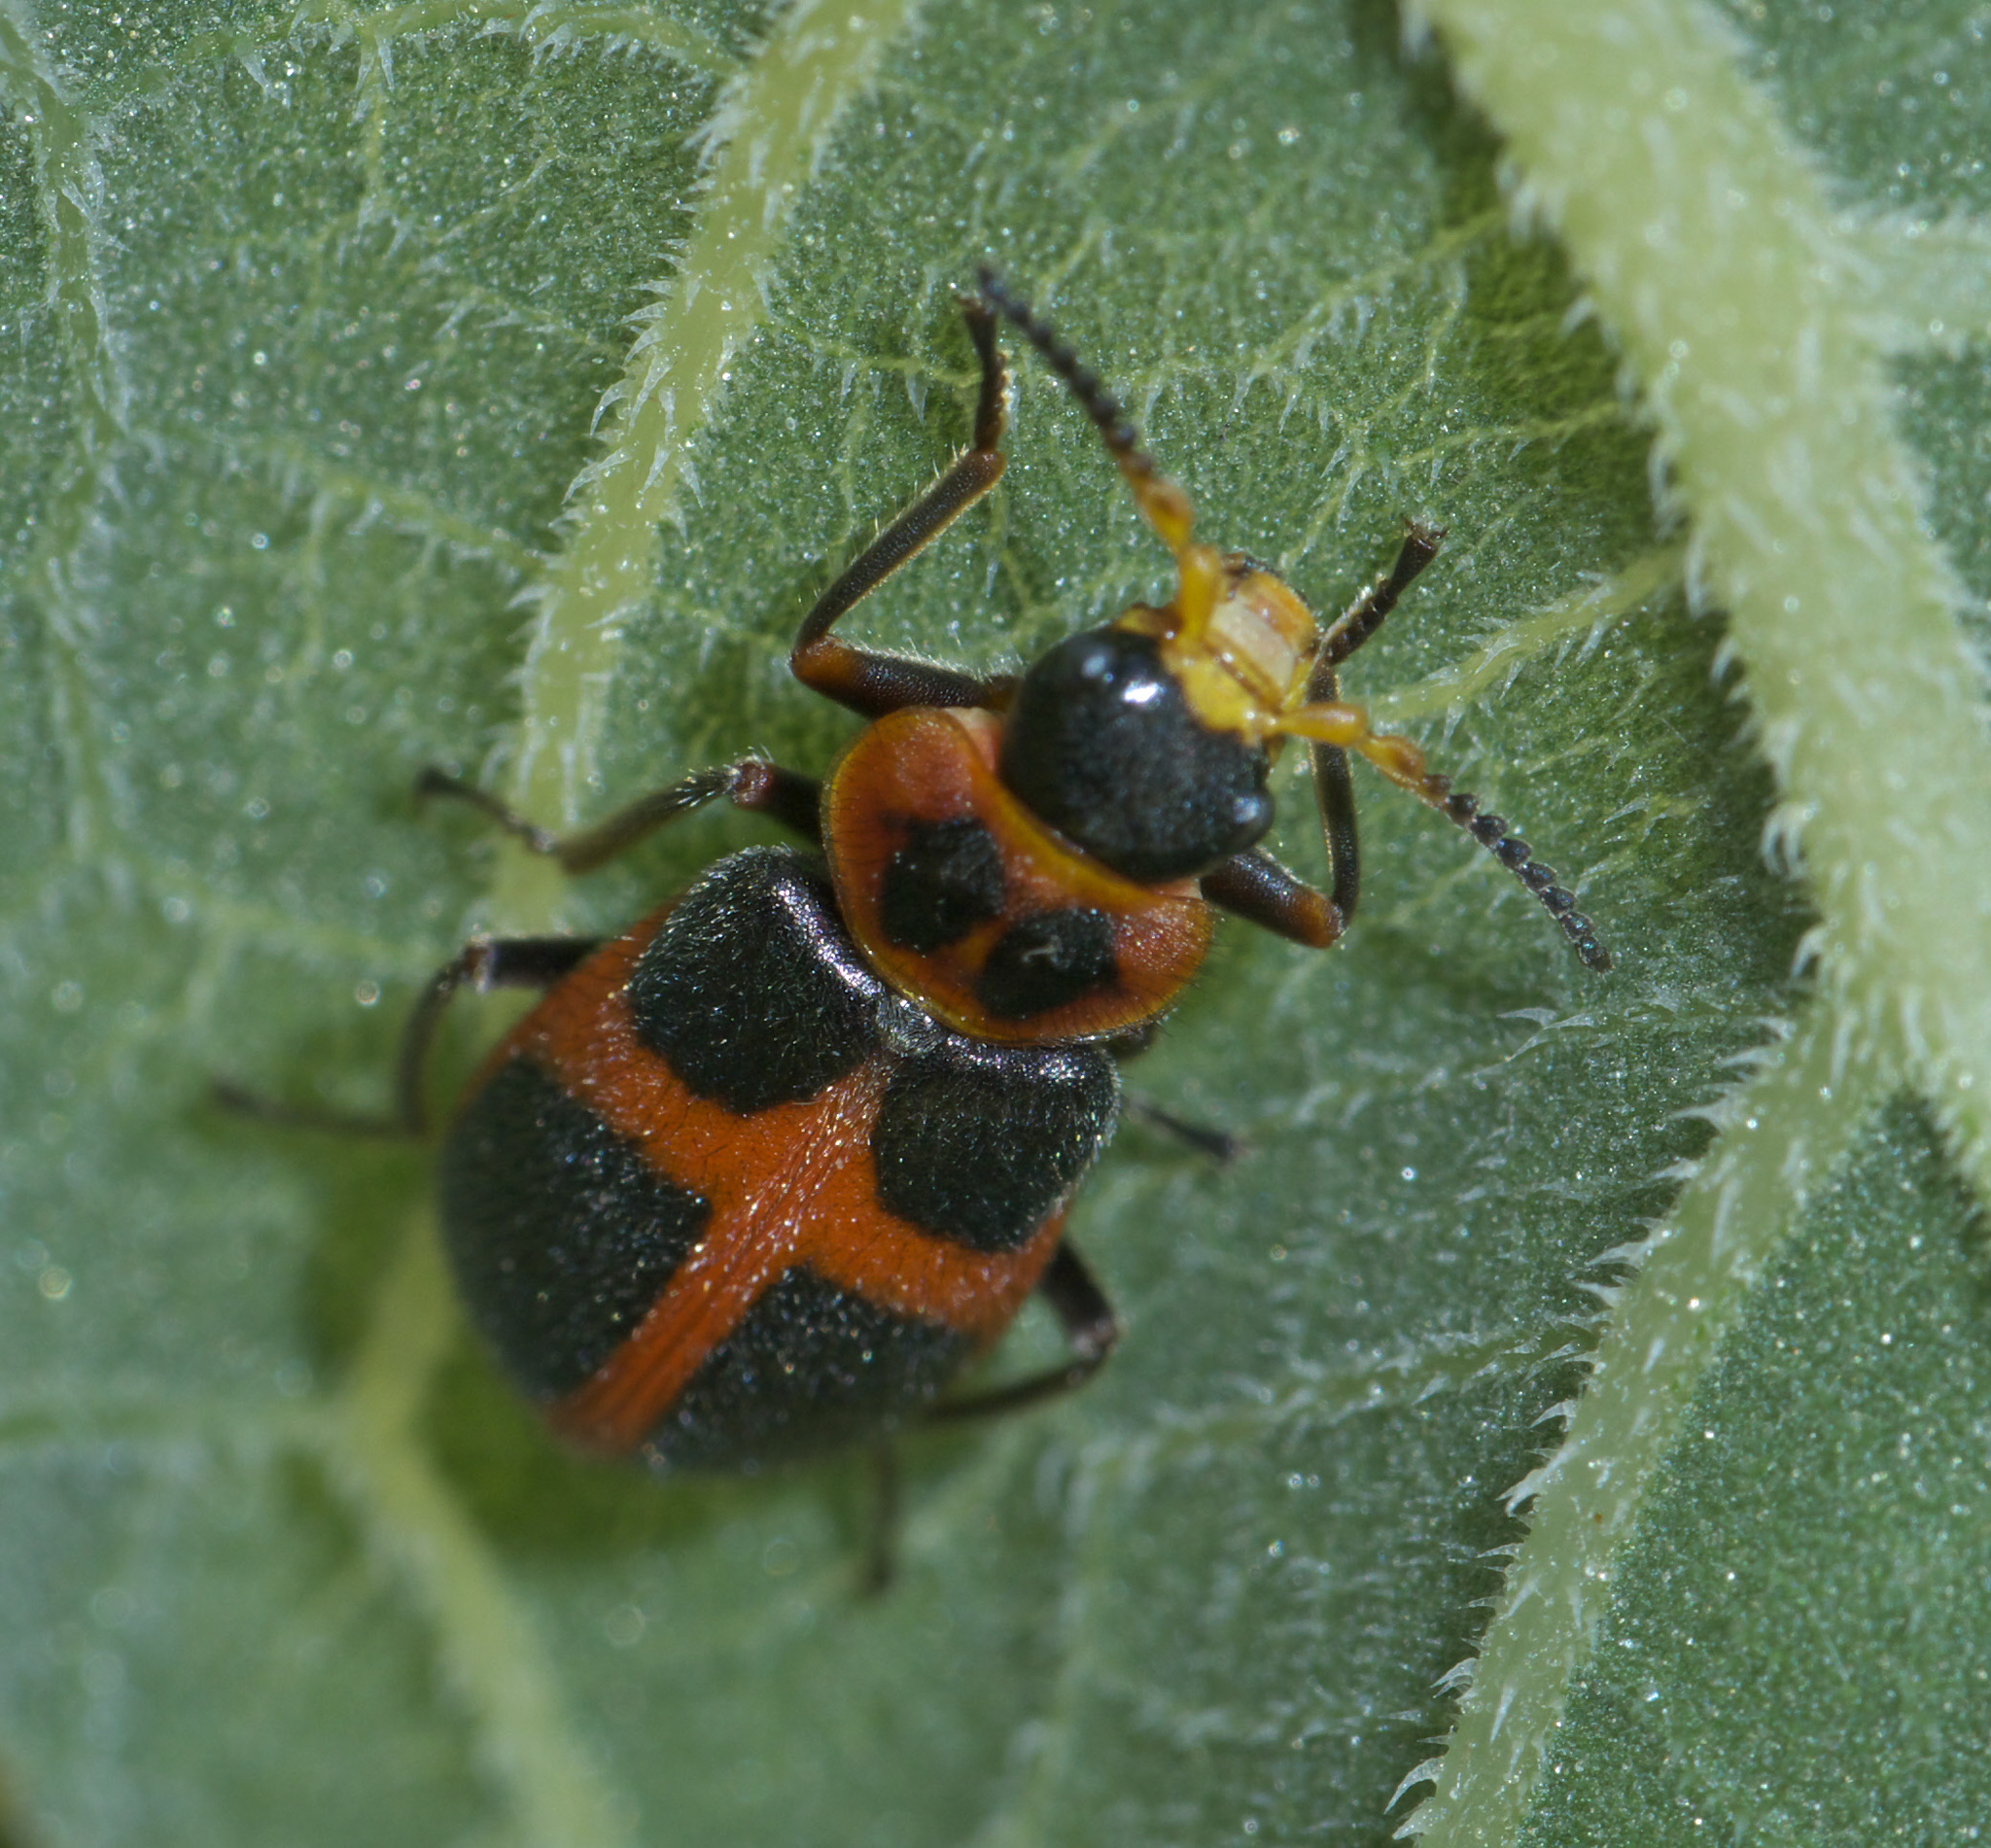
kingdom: Animalia
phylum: Arthropoda
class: Insecta
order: Coleoptera
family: Melyridae
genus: Collops
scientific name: Collops
